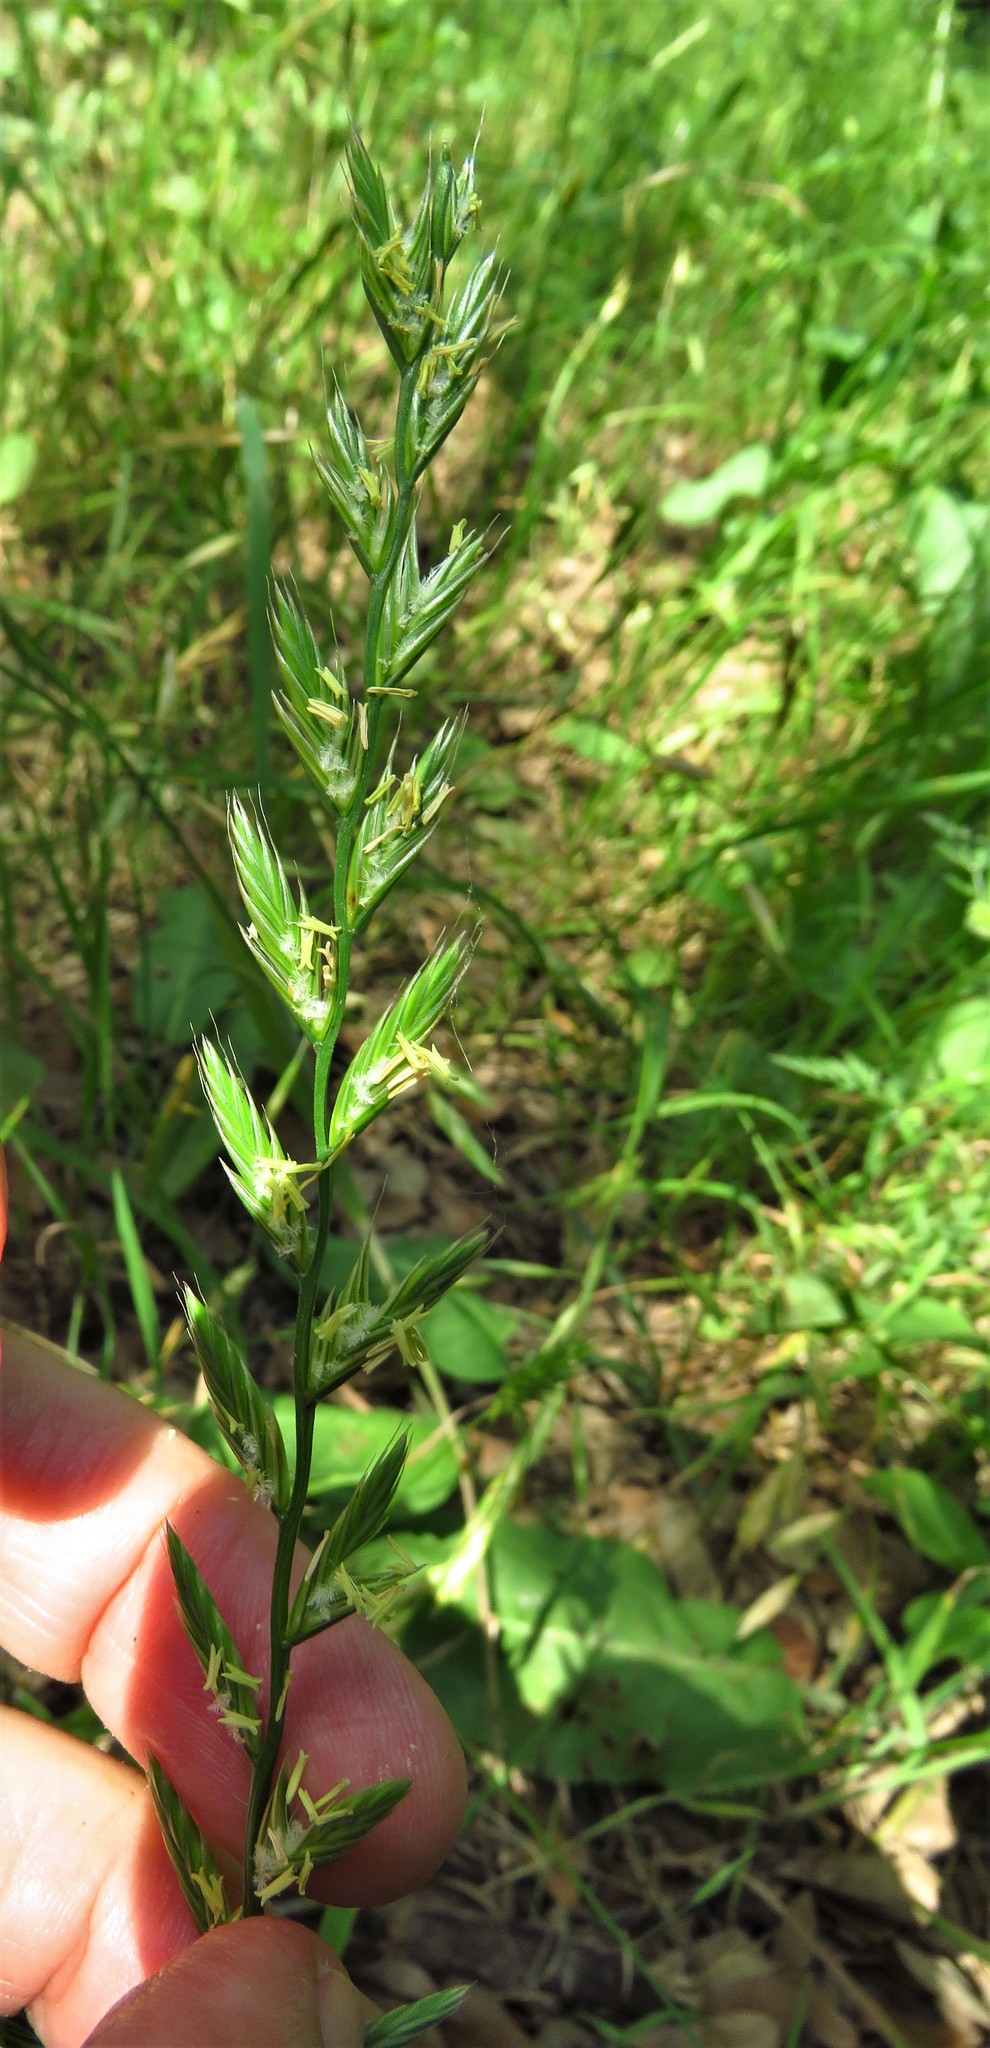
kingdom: Plantae
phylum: Tracheophyta
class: Liliopsida
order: Poales
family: Poaceae
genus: Lolium
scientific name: Lolium perenne
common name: Perennial ryegrass
